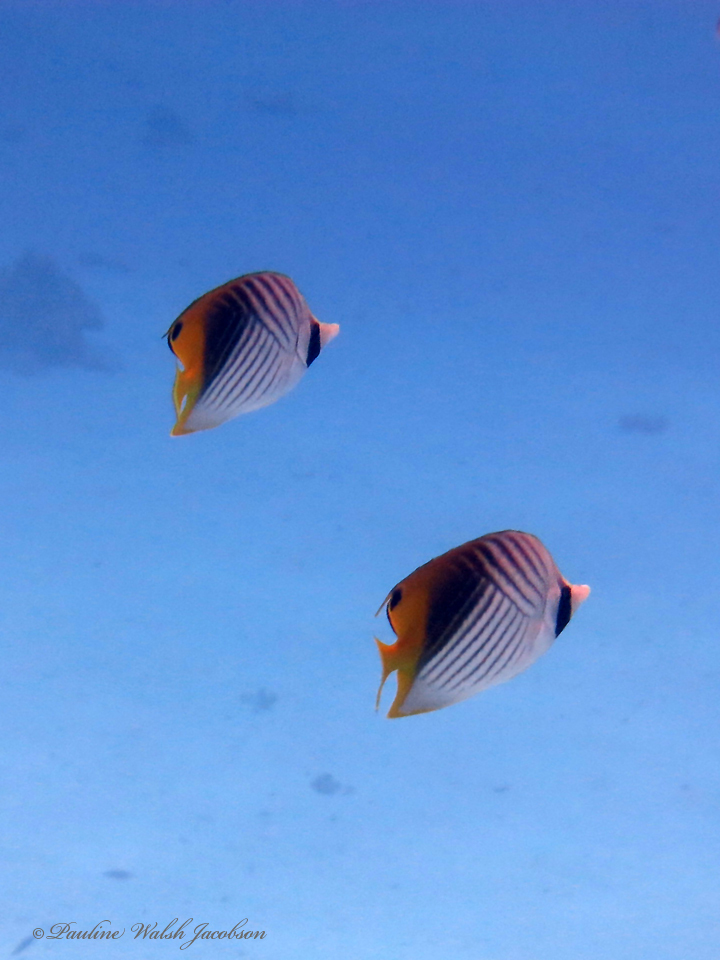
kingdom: Animalia
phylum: Chordata
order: Perciformes
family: Chaetodontidae
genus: Chaetodon
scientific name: Chaetodon auriga
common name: Threadfin butterflyfish
